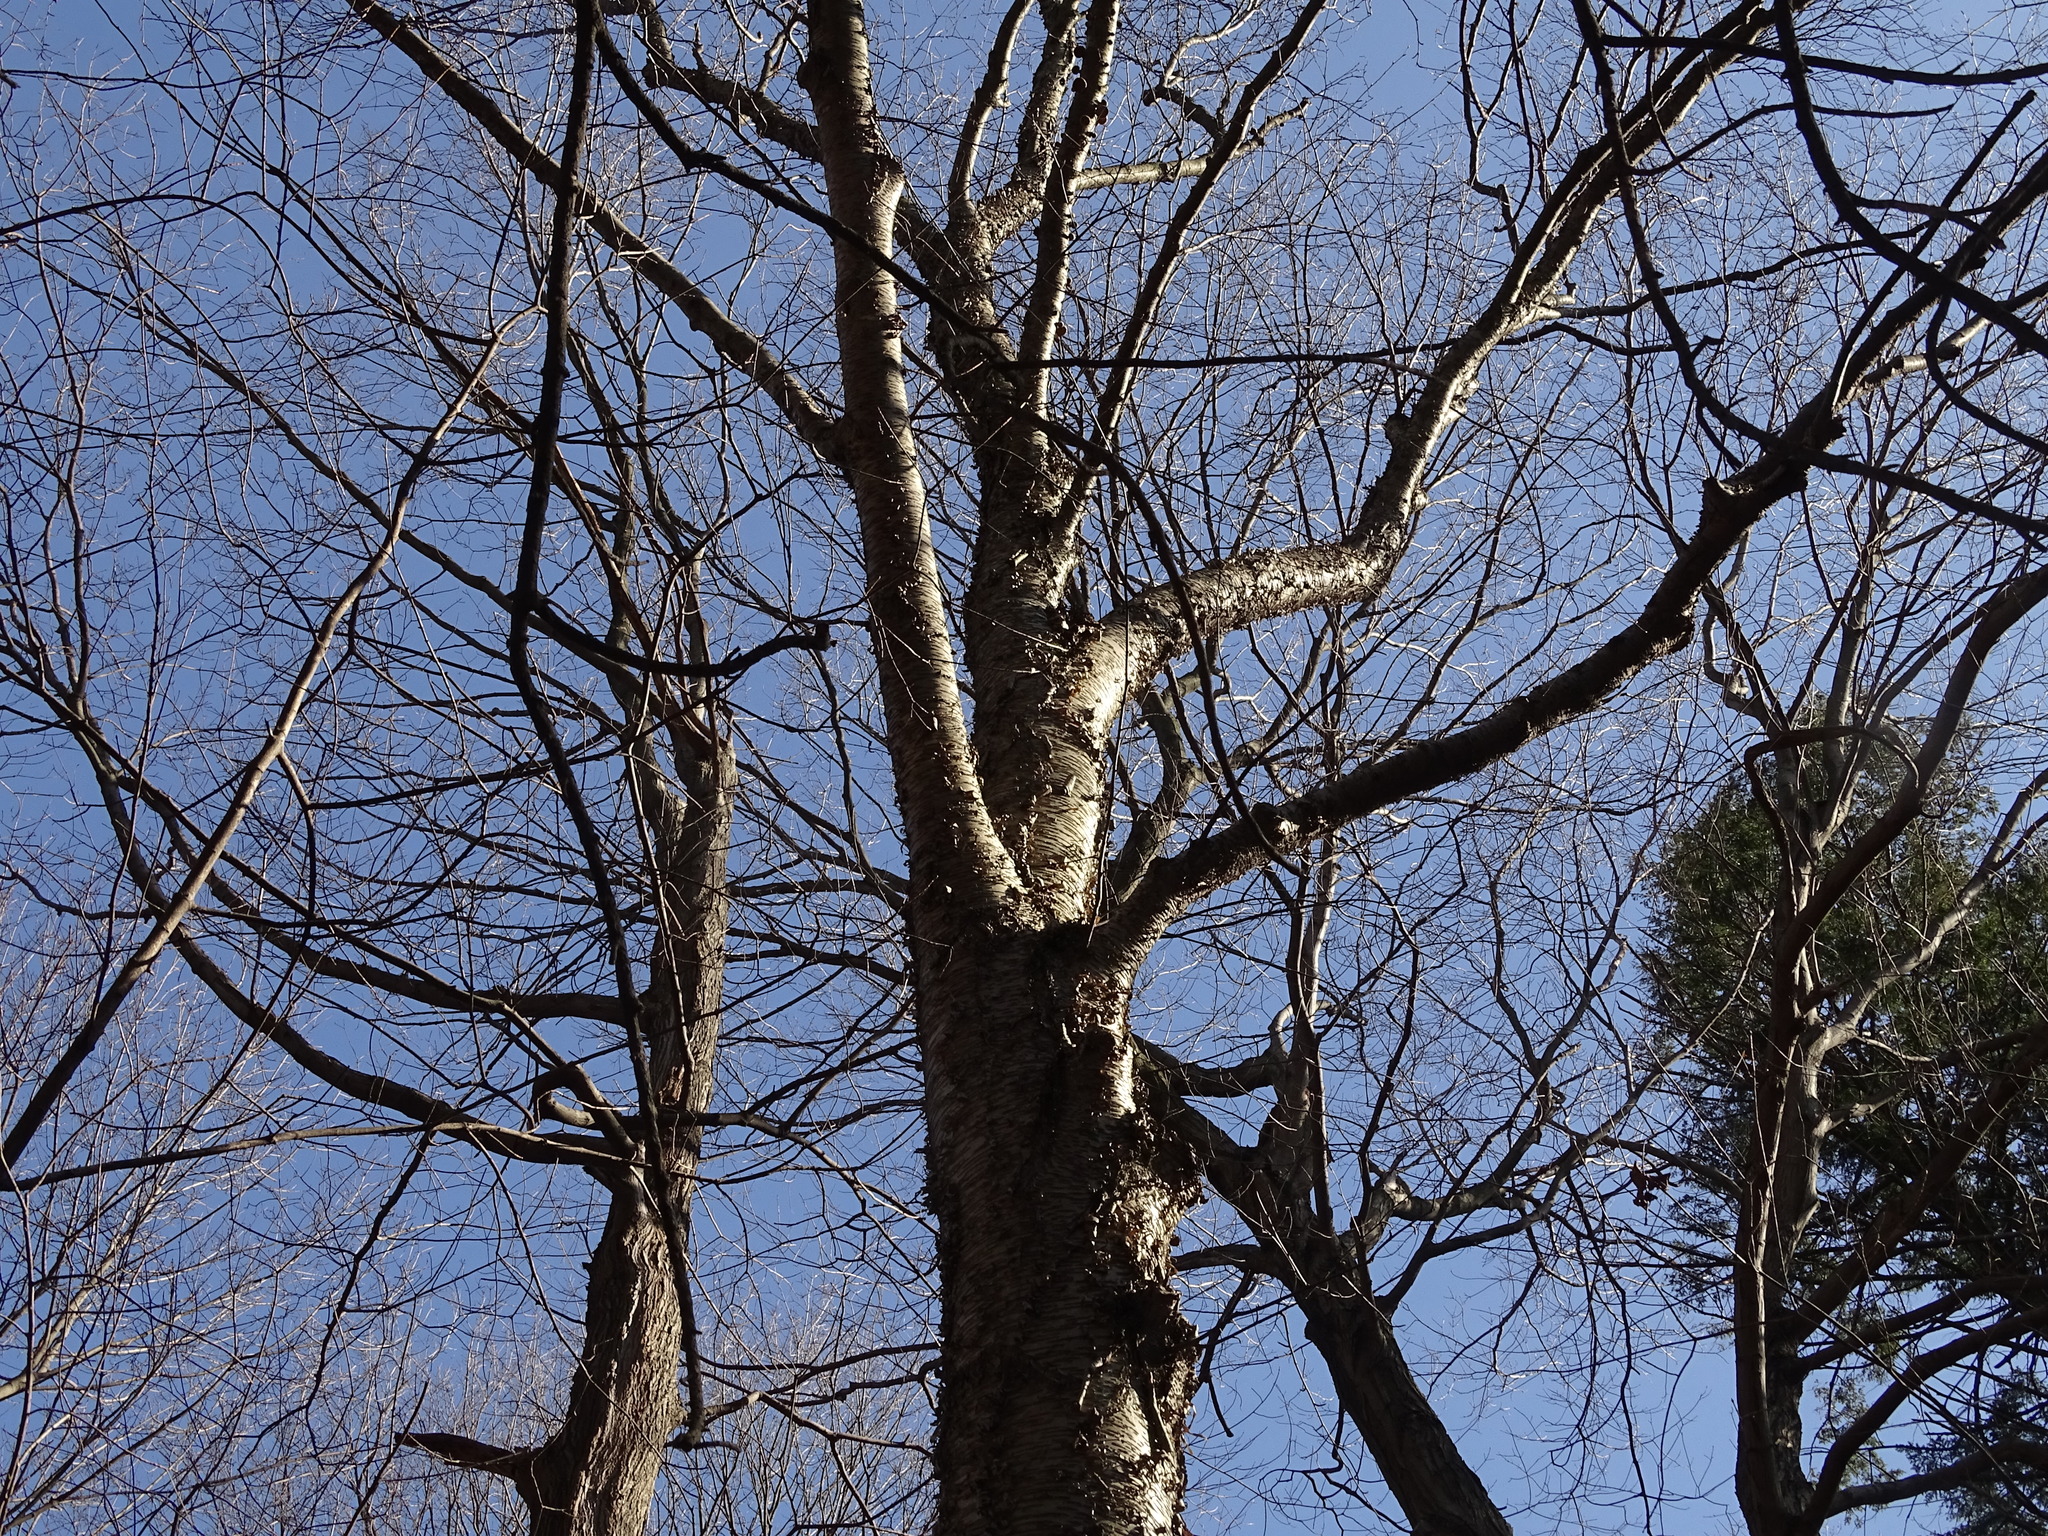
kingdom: Plantae
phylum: Tracheophyta
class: Magnoliopsida
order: Fagales
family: Betulaceae
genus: Betula
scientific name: Betula alleghaniensis
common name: Yellow birch
